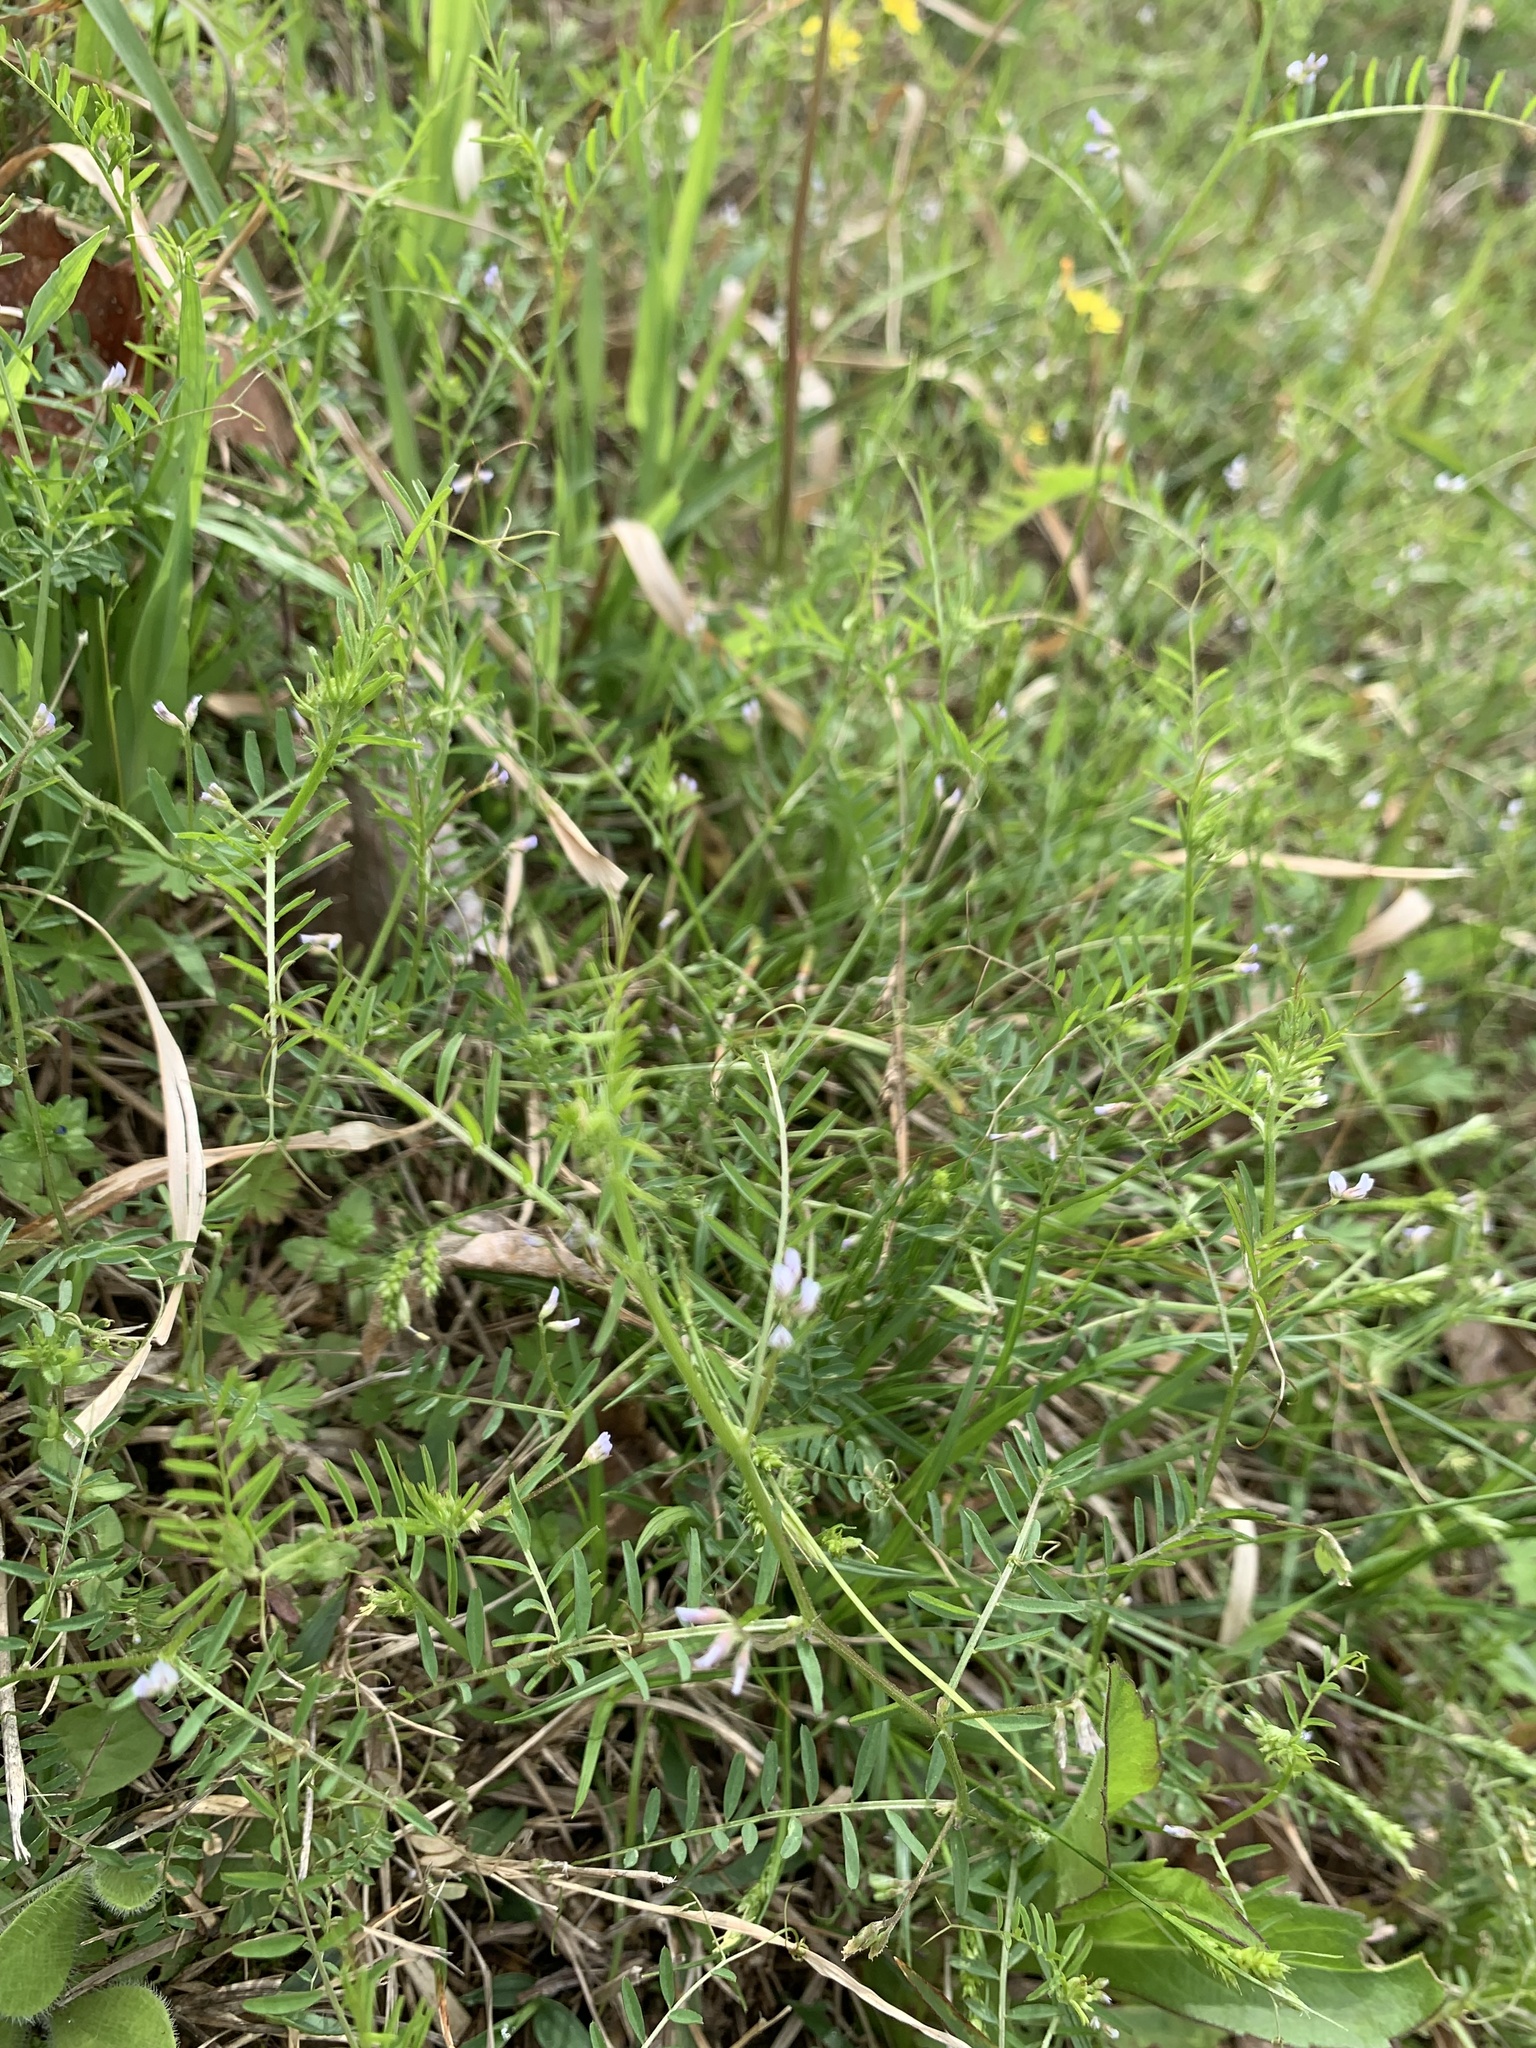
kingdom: Plantae
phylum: Tracheophyta
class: Magnoliopsida
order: Fabales
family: Fabaceae
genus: Vicia
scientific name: Vicia hirsuta
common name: Tiny vetch
